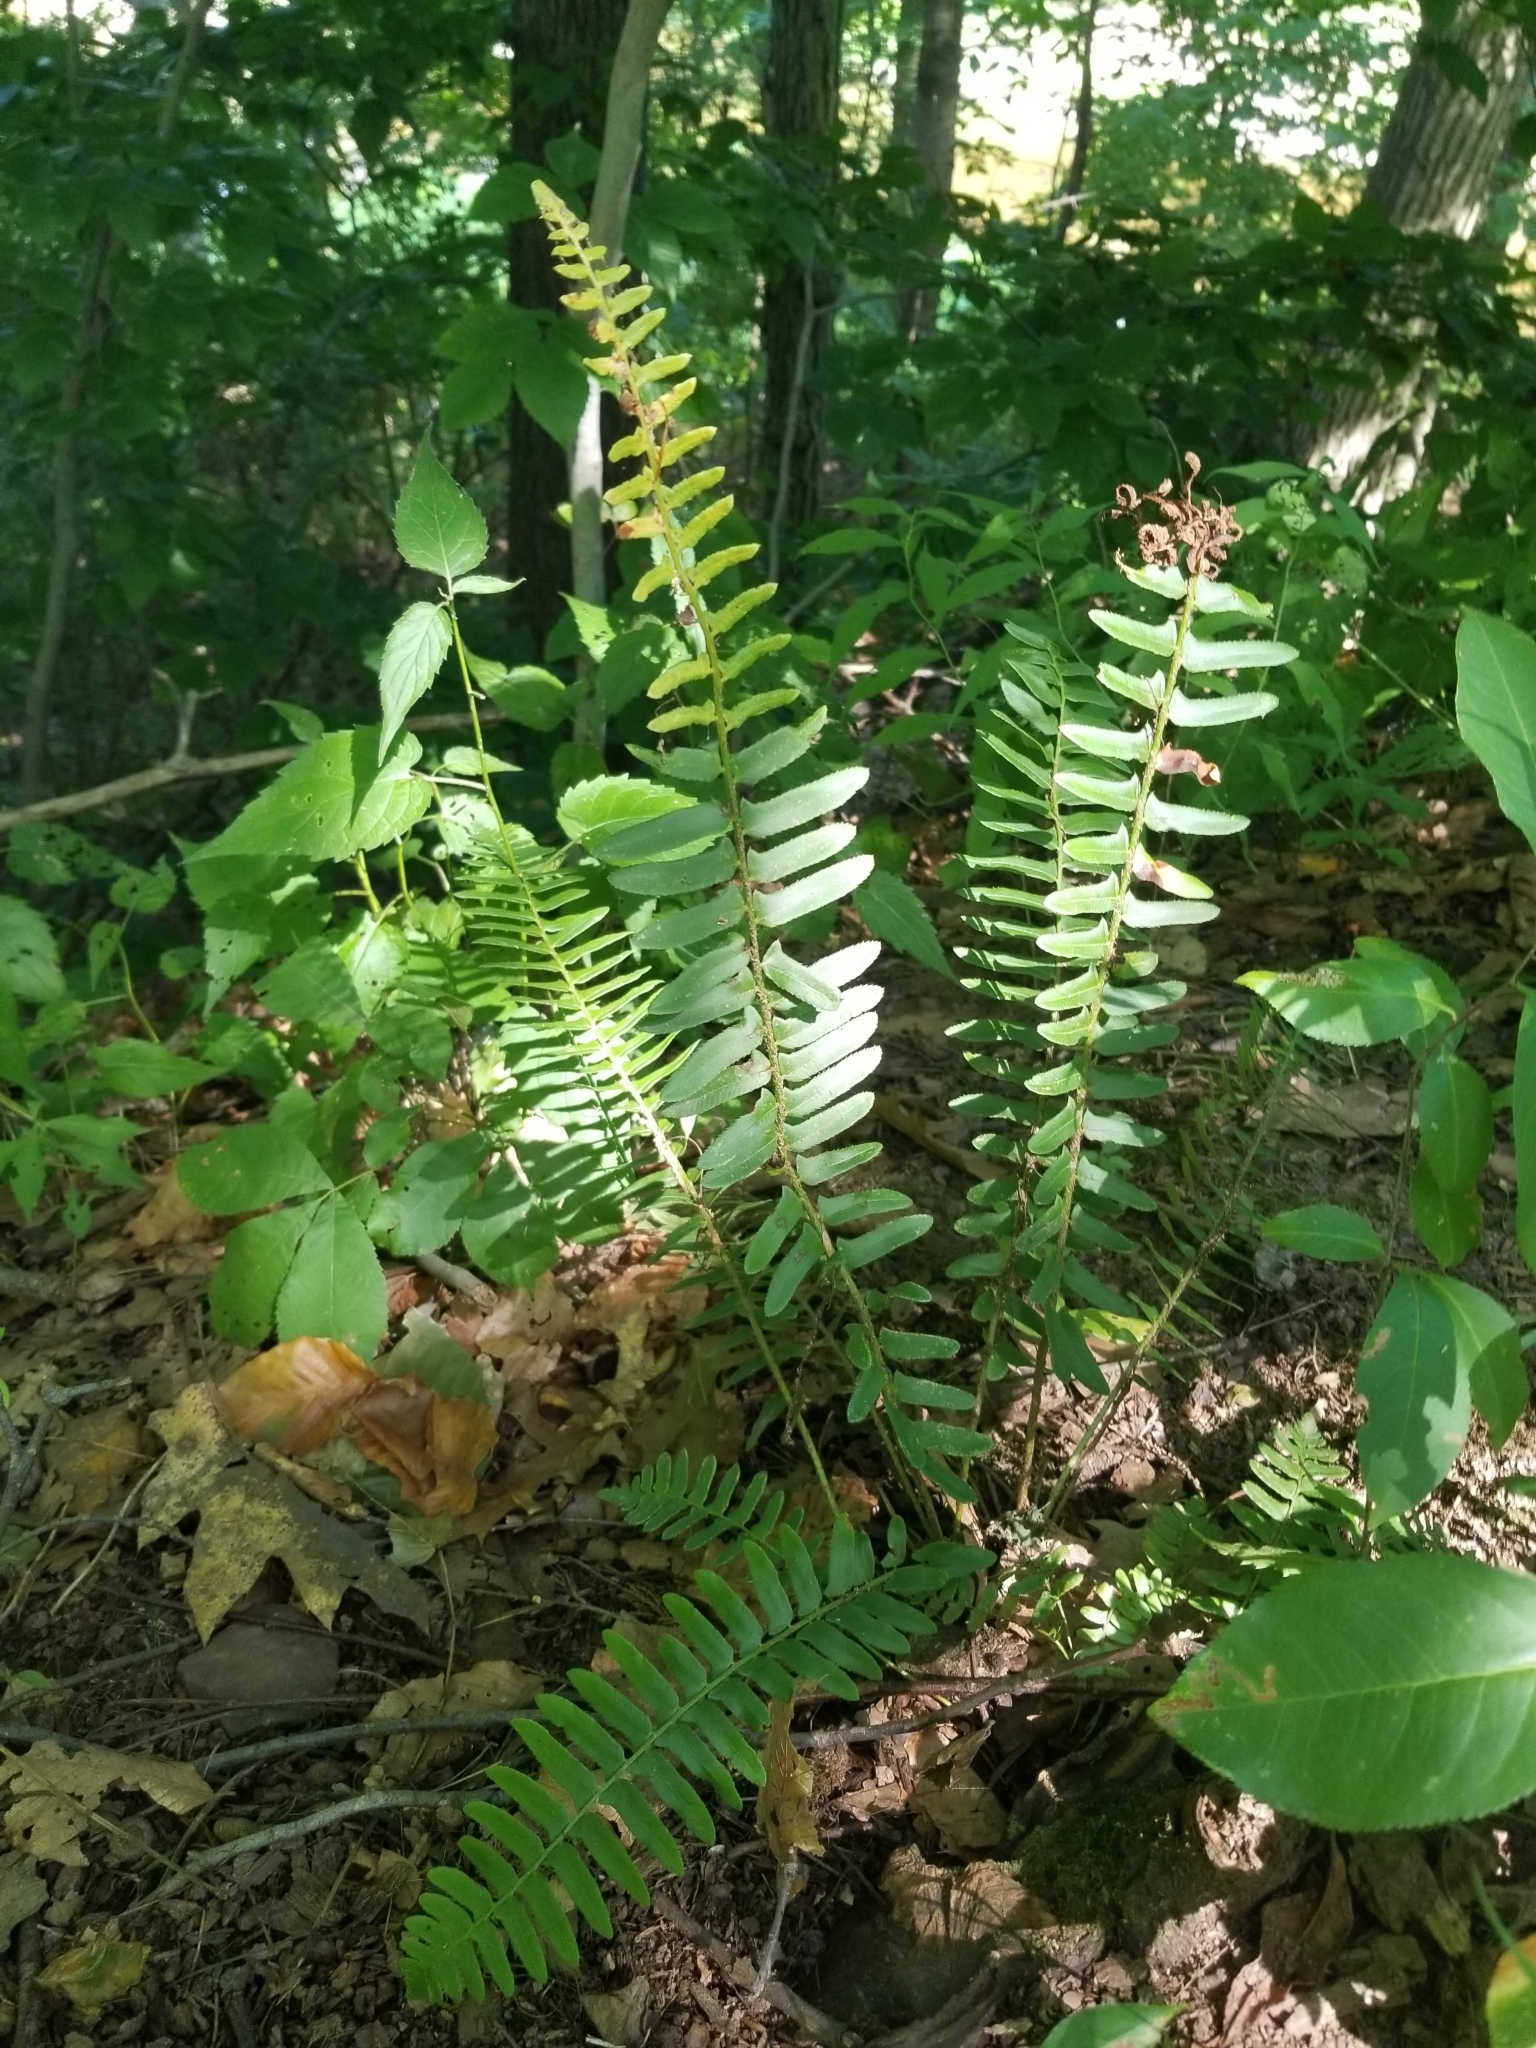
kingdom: Plantae
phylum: Tracheophyta
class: Polypodiopsida
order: Polypodiales
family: Dryopteridaceae
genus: Polystichum
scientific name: Polystichum acrostichoides
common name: Christmas fern
